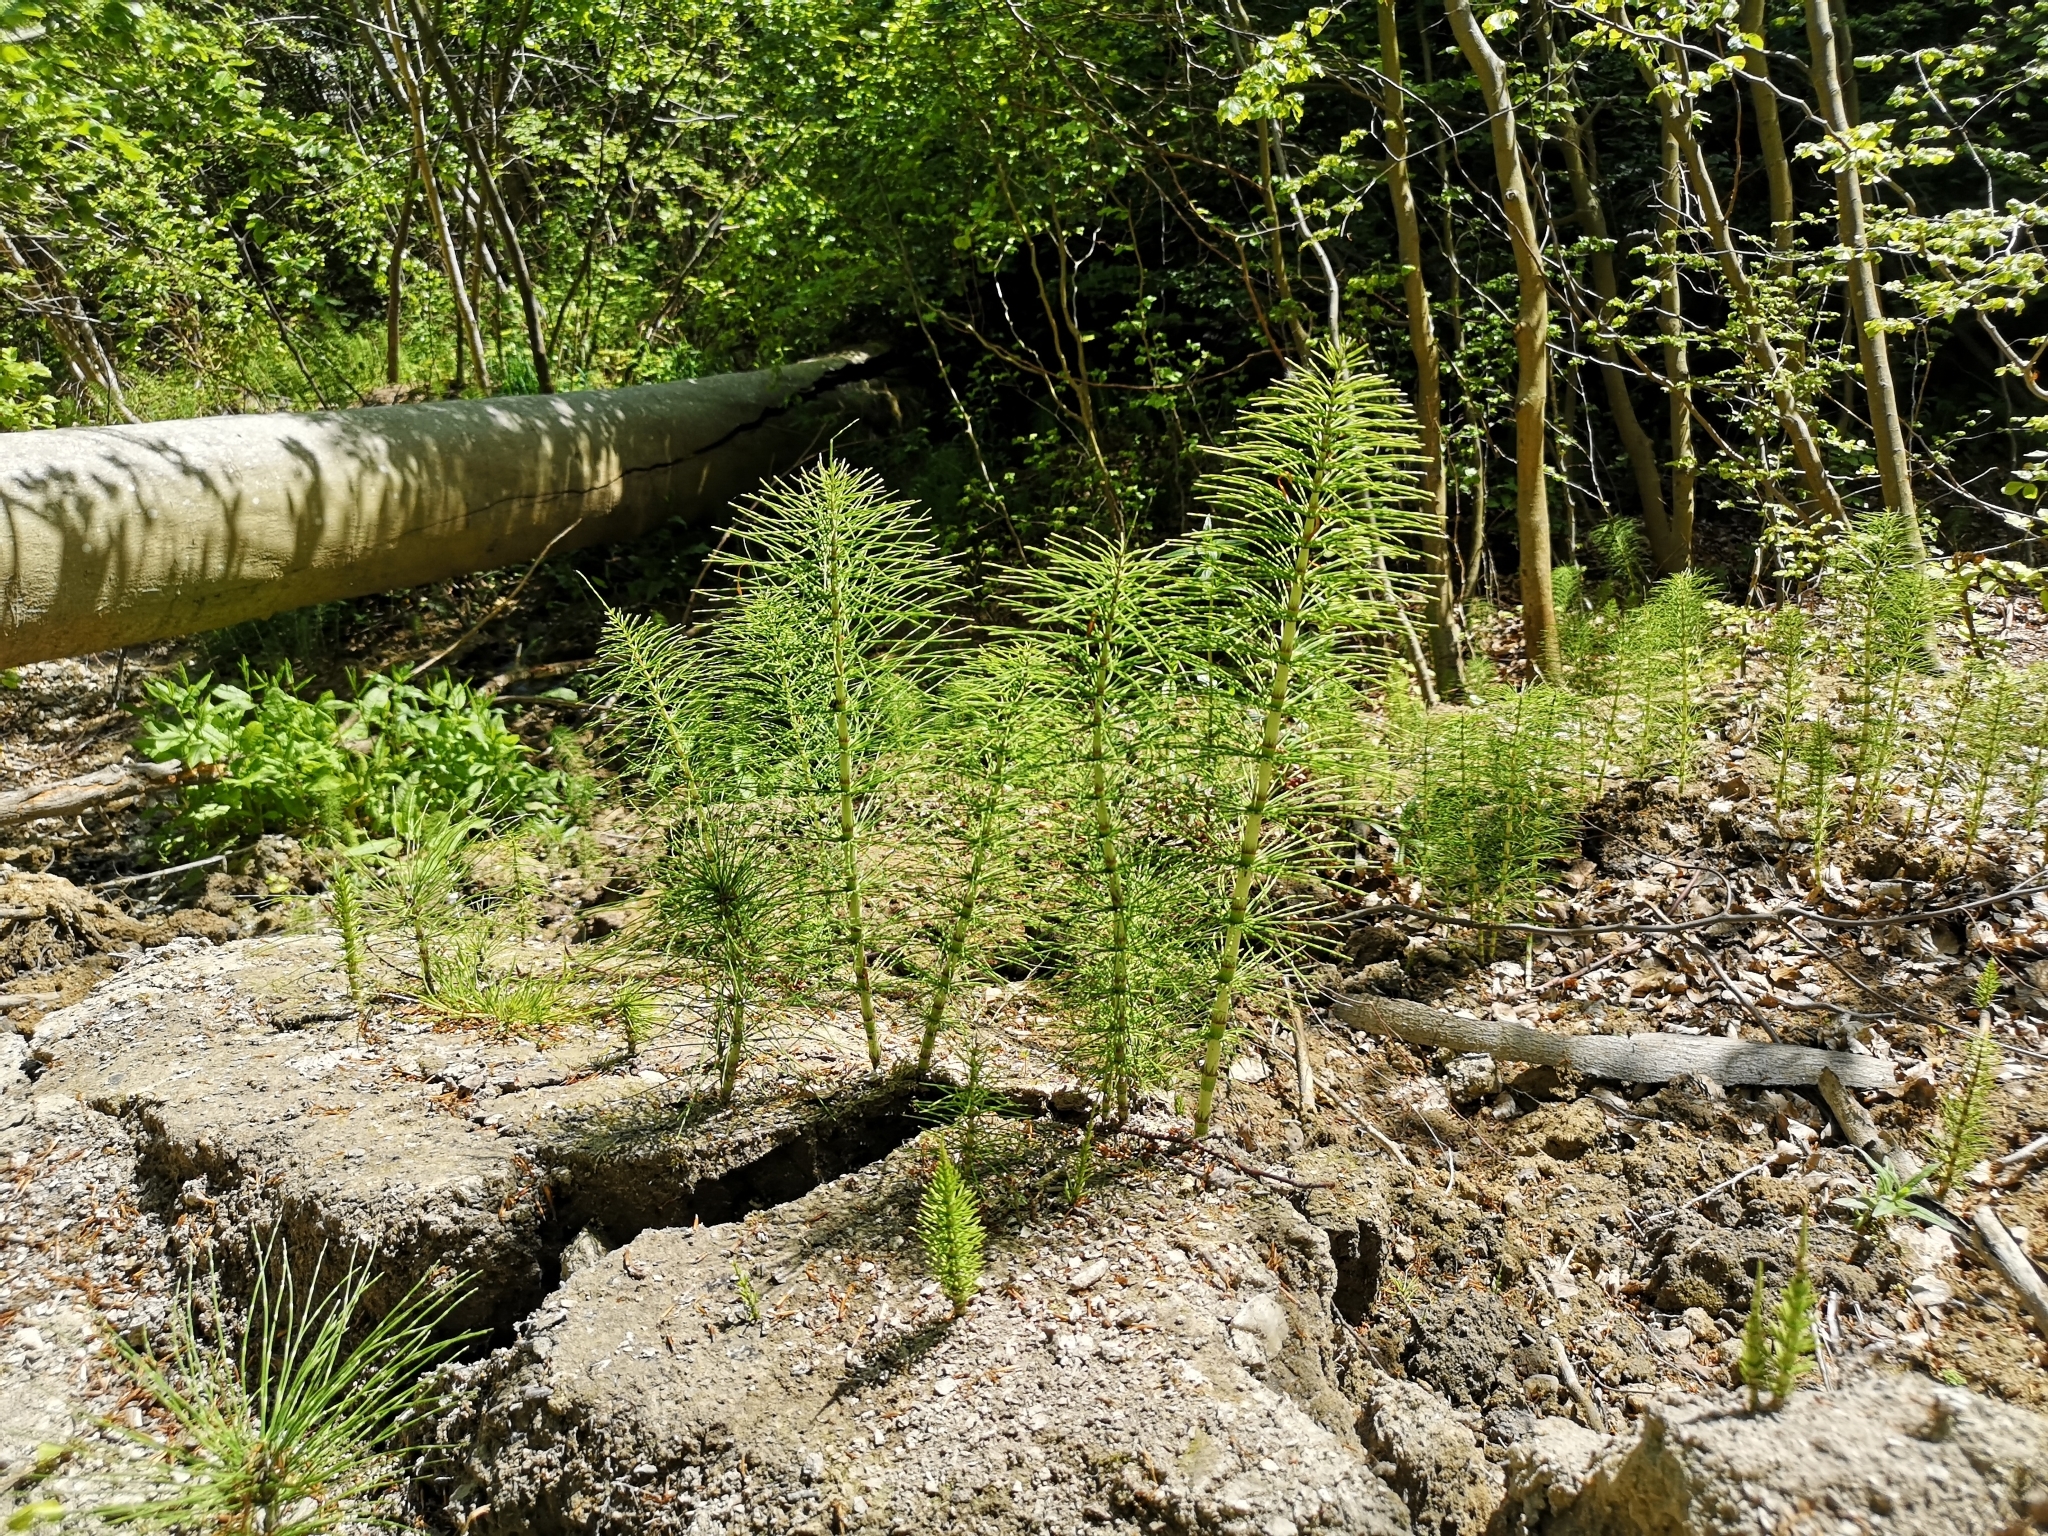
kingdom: Plantae
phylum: Tracheophyta
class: Polypodiopsida
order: Equisetales
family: Equisetaceae
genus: Equisetum
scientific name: Equisetum telmateia
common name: Great horsetail
